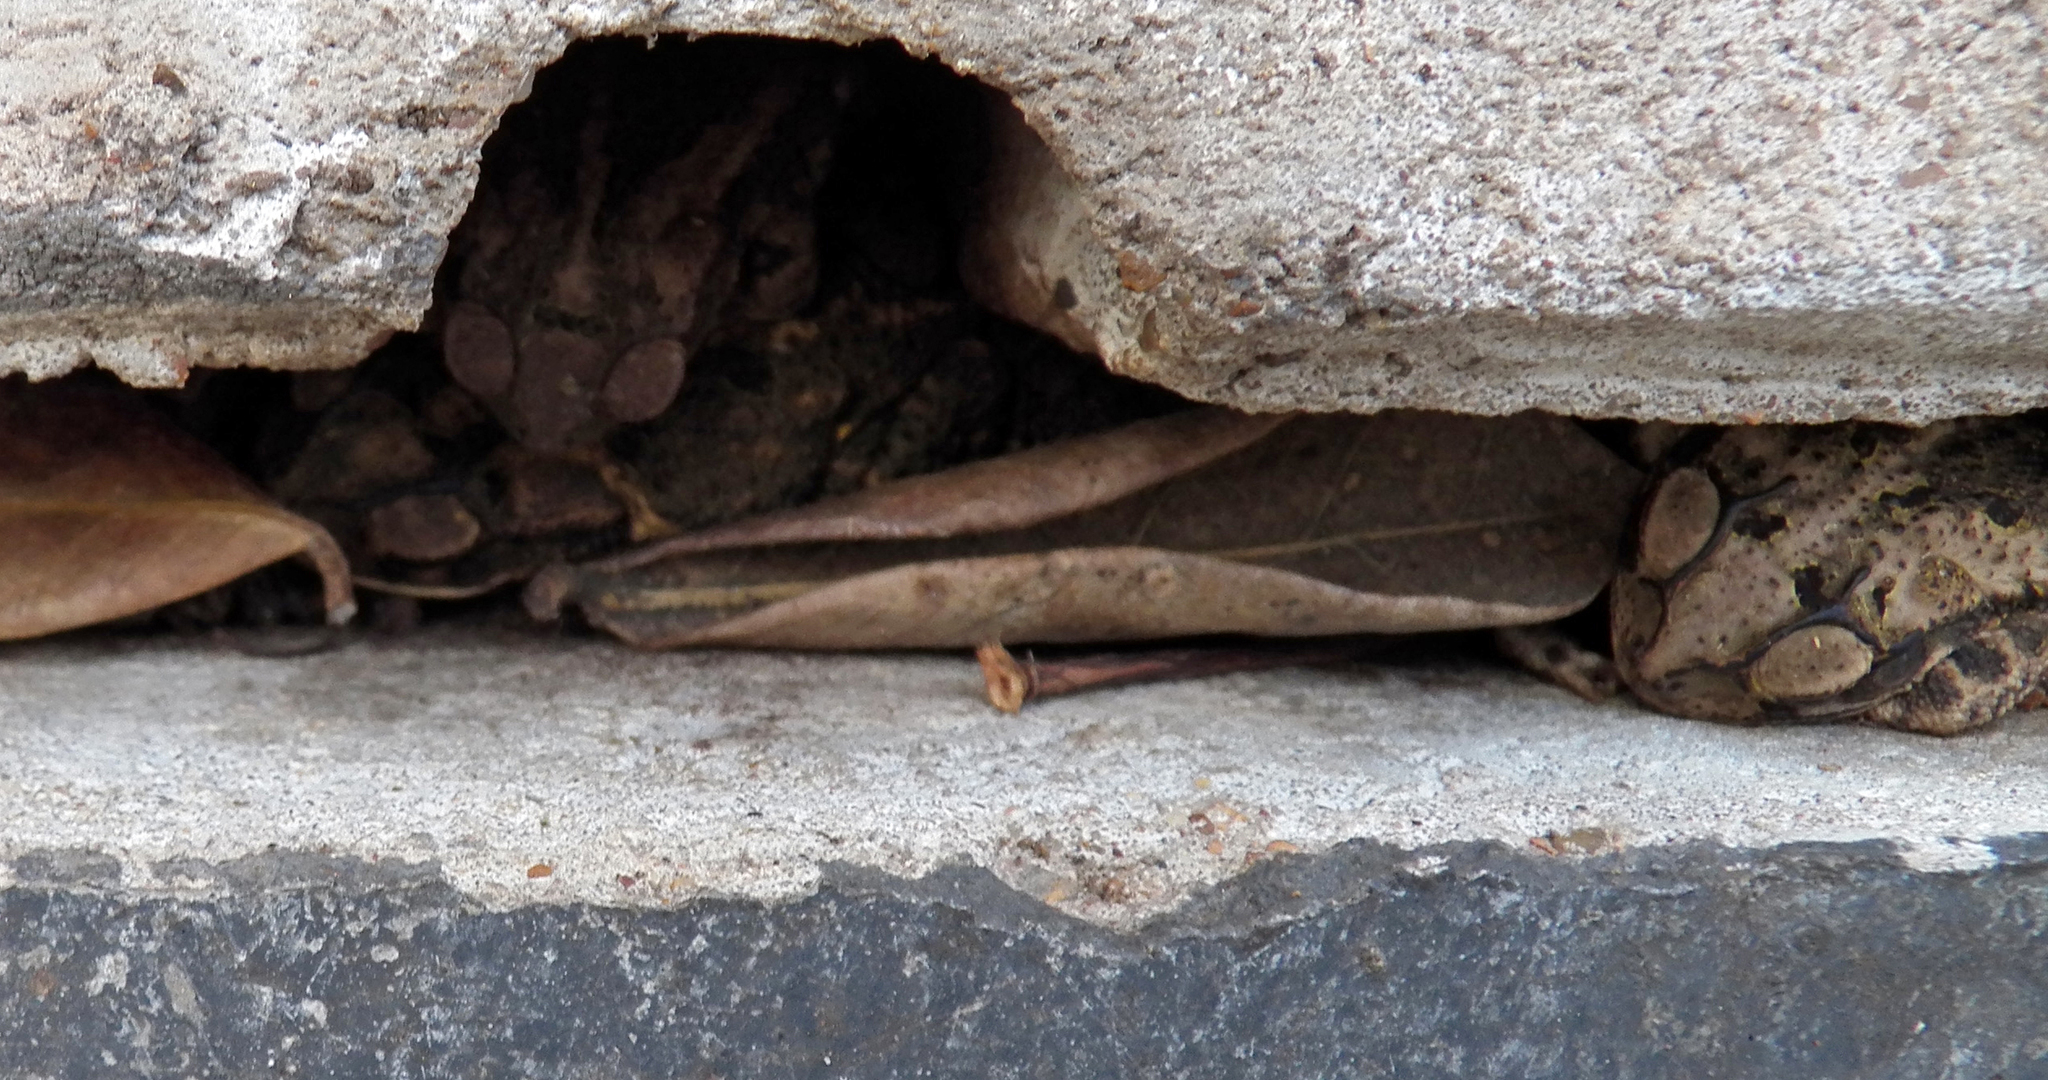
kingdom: Animalia
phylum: Chordata
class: Amphibia
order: Anura
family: Bufonidae
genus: Incilius
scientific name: Incilius nebulifer
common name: Gulf coast toad
